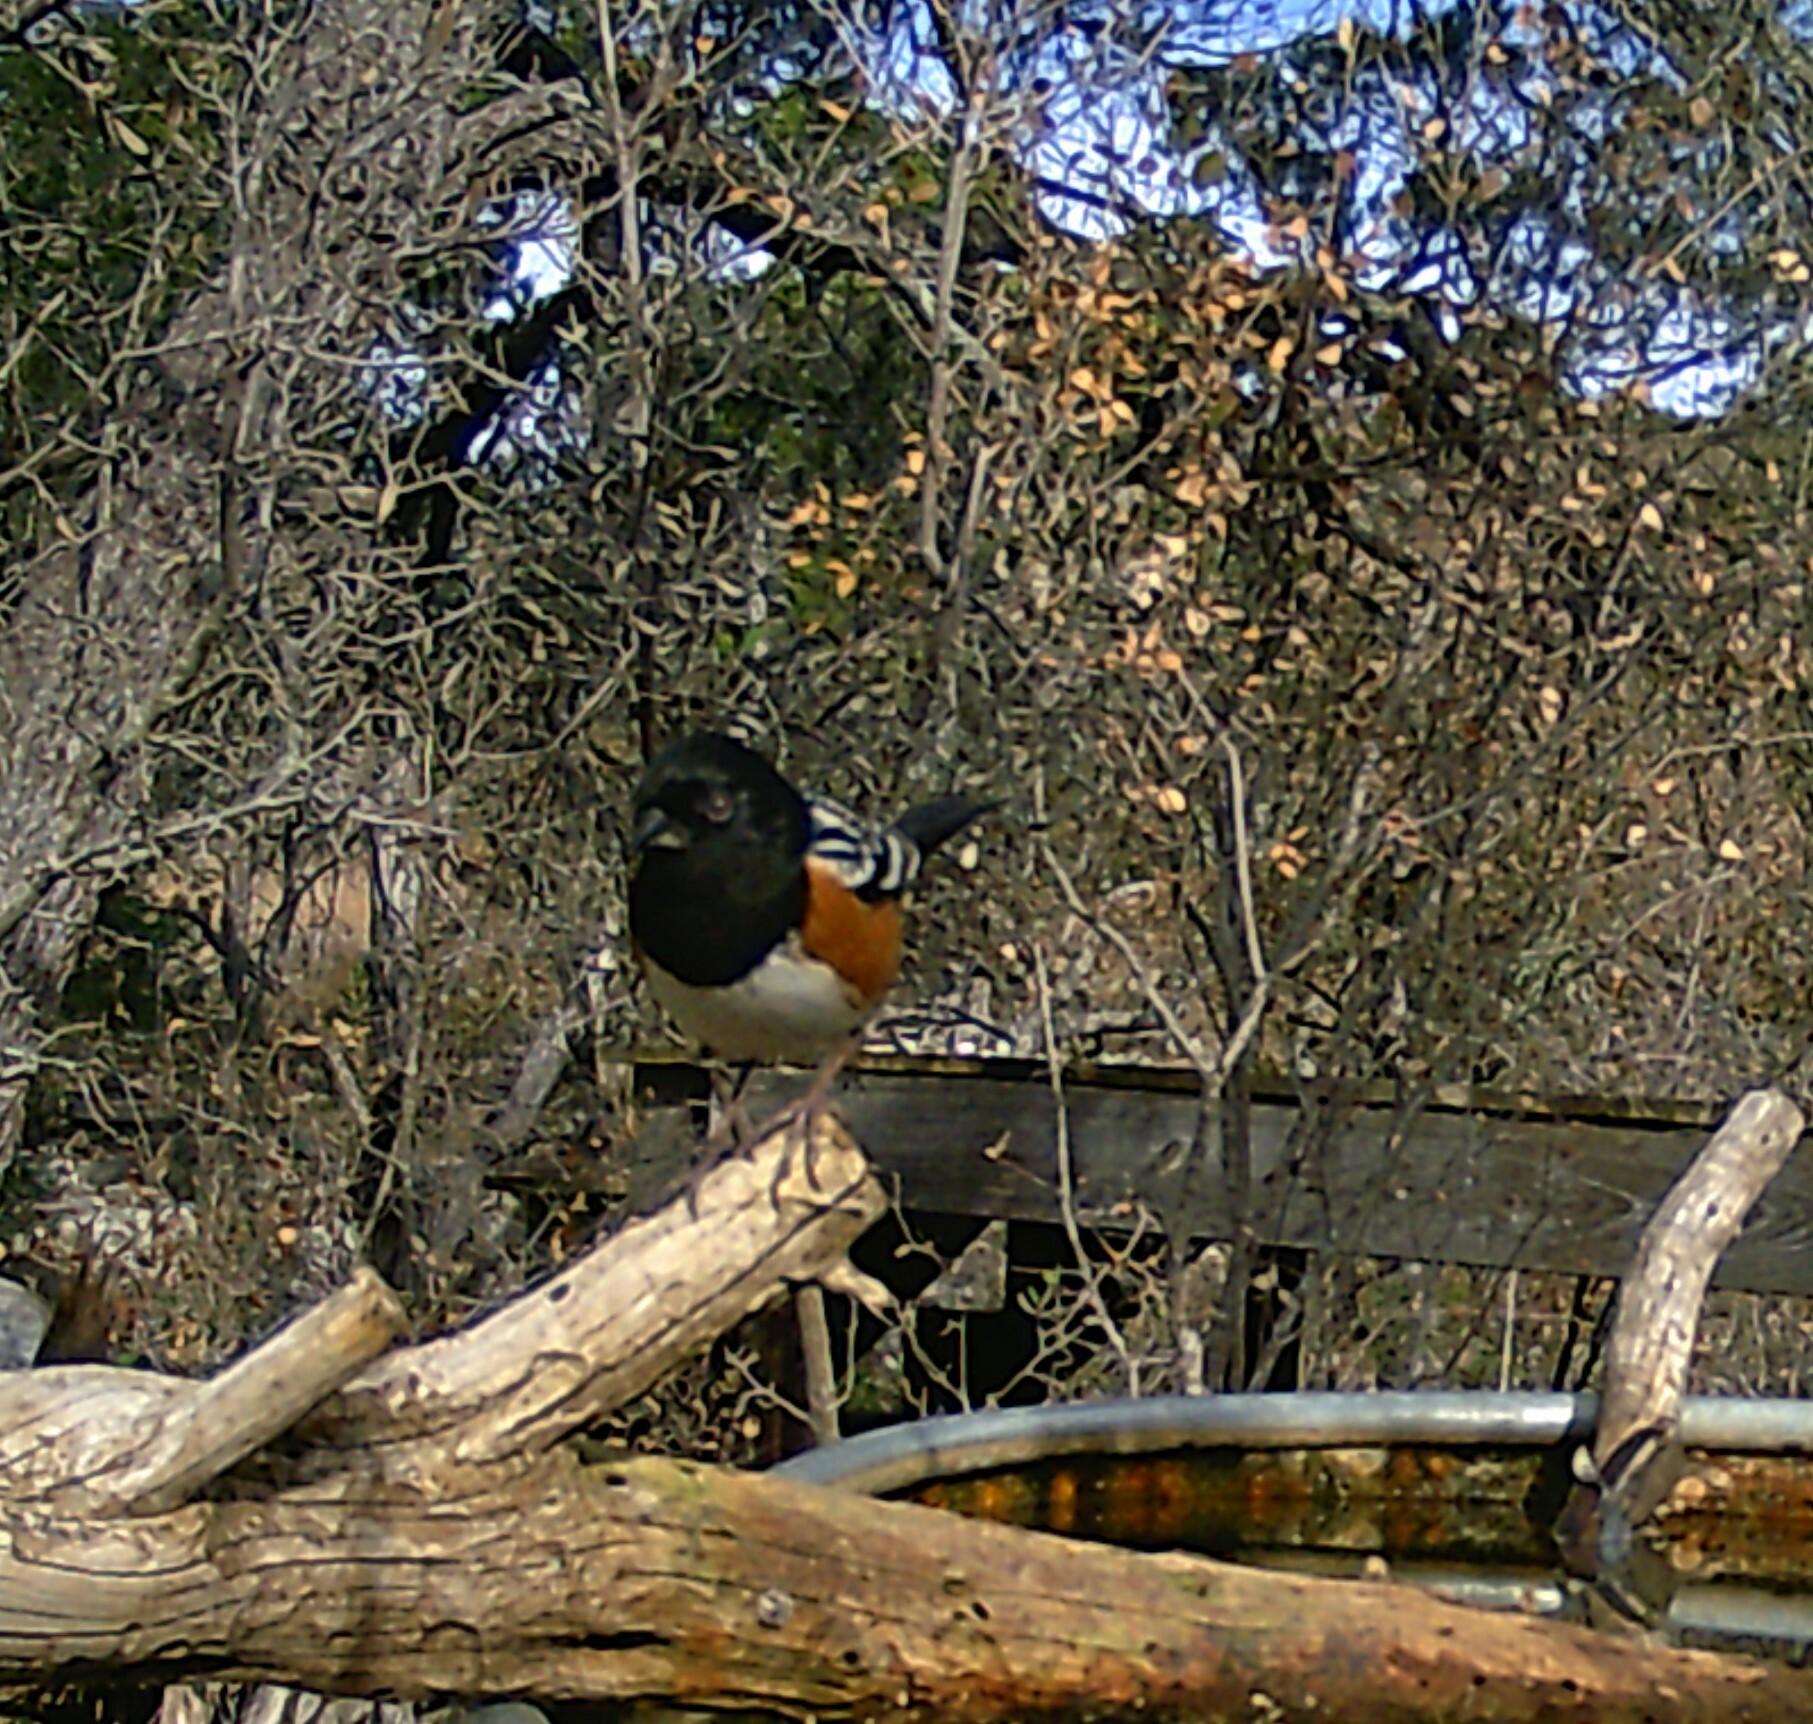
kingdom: Animalia
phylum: Chordata
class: Aves
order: Passeriformes
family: Passerellidae
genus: Pipilo
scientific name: Pipilo maculatus
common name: Spotted towhee
